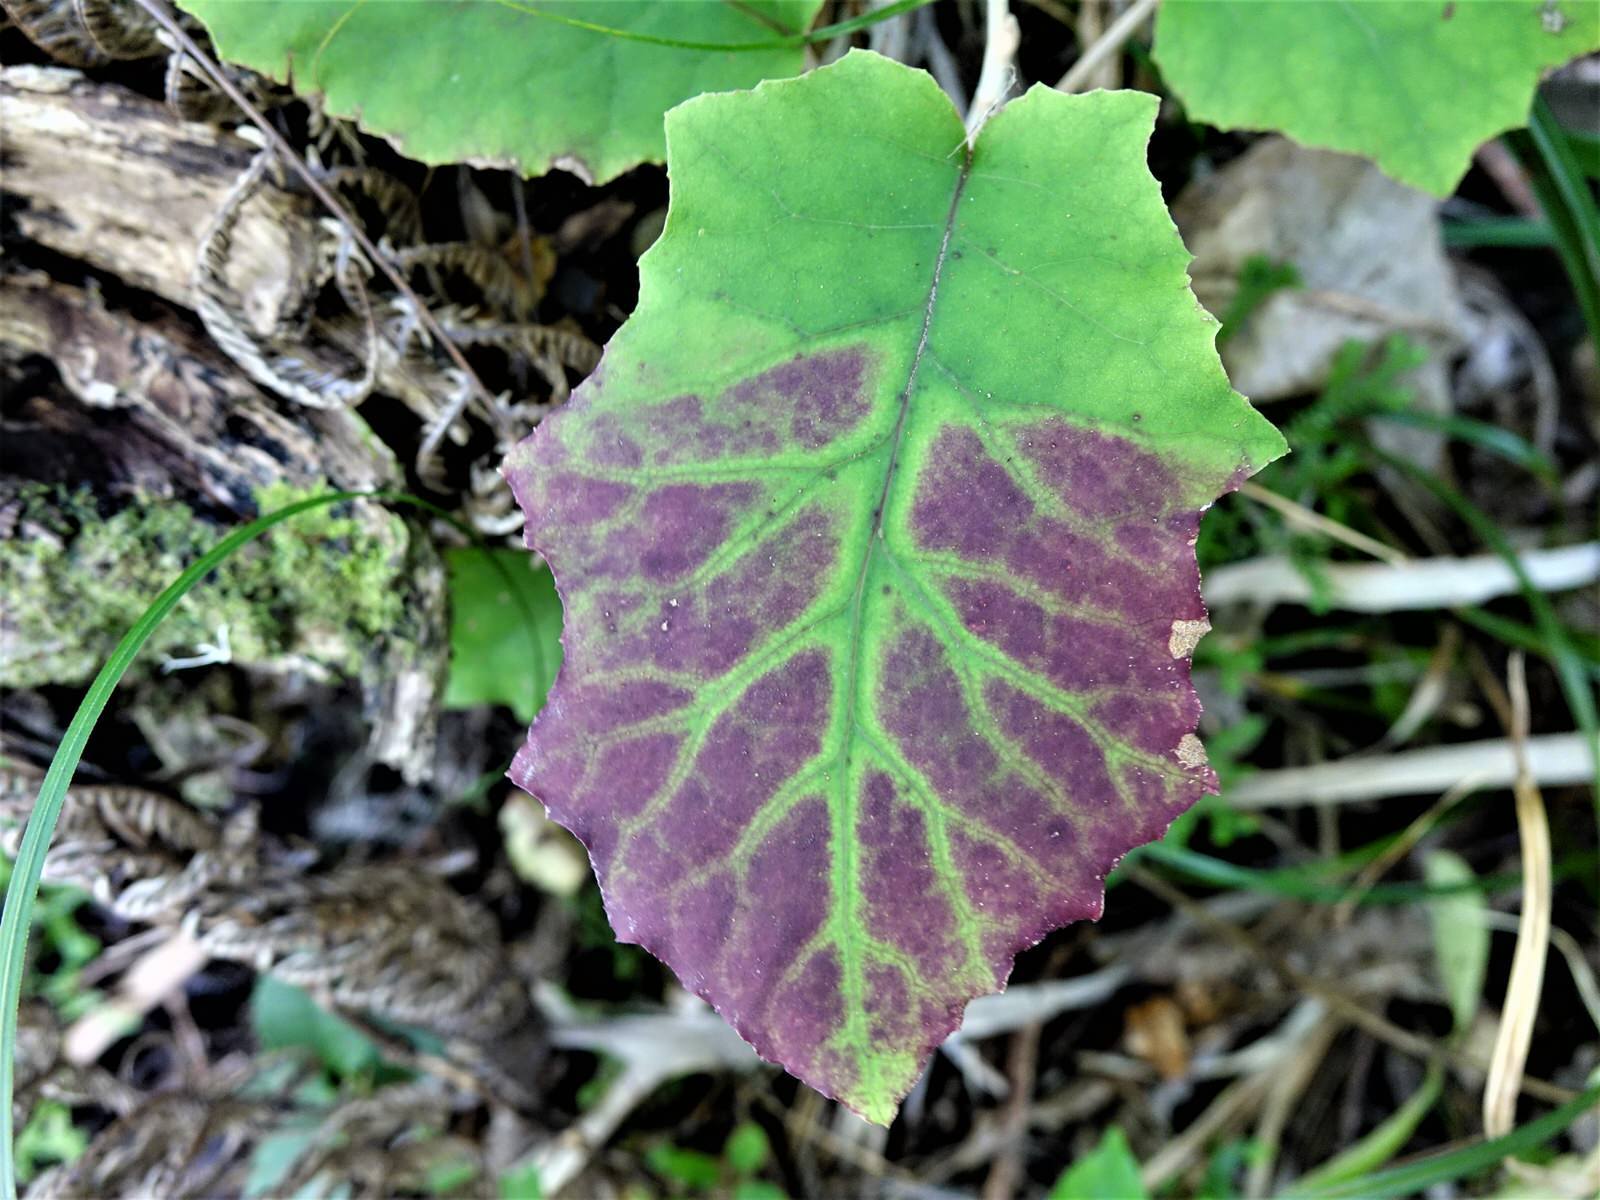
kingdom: Plantae
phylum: Tracheophyta
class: Magnoliopsida
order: Asterales
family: Asteraceae
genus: Brachyglottis
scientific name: Brachyglottis repanda
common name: Hedge ragwort
